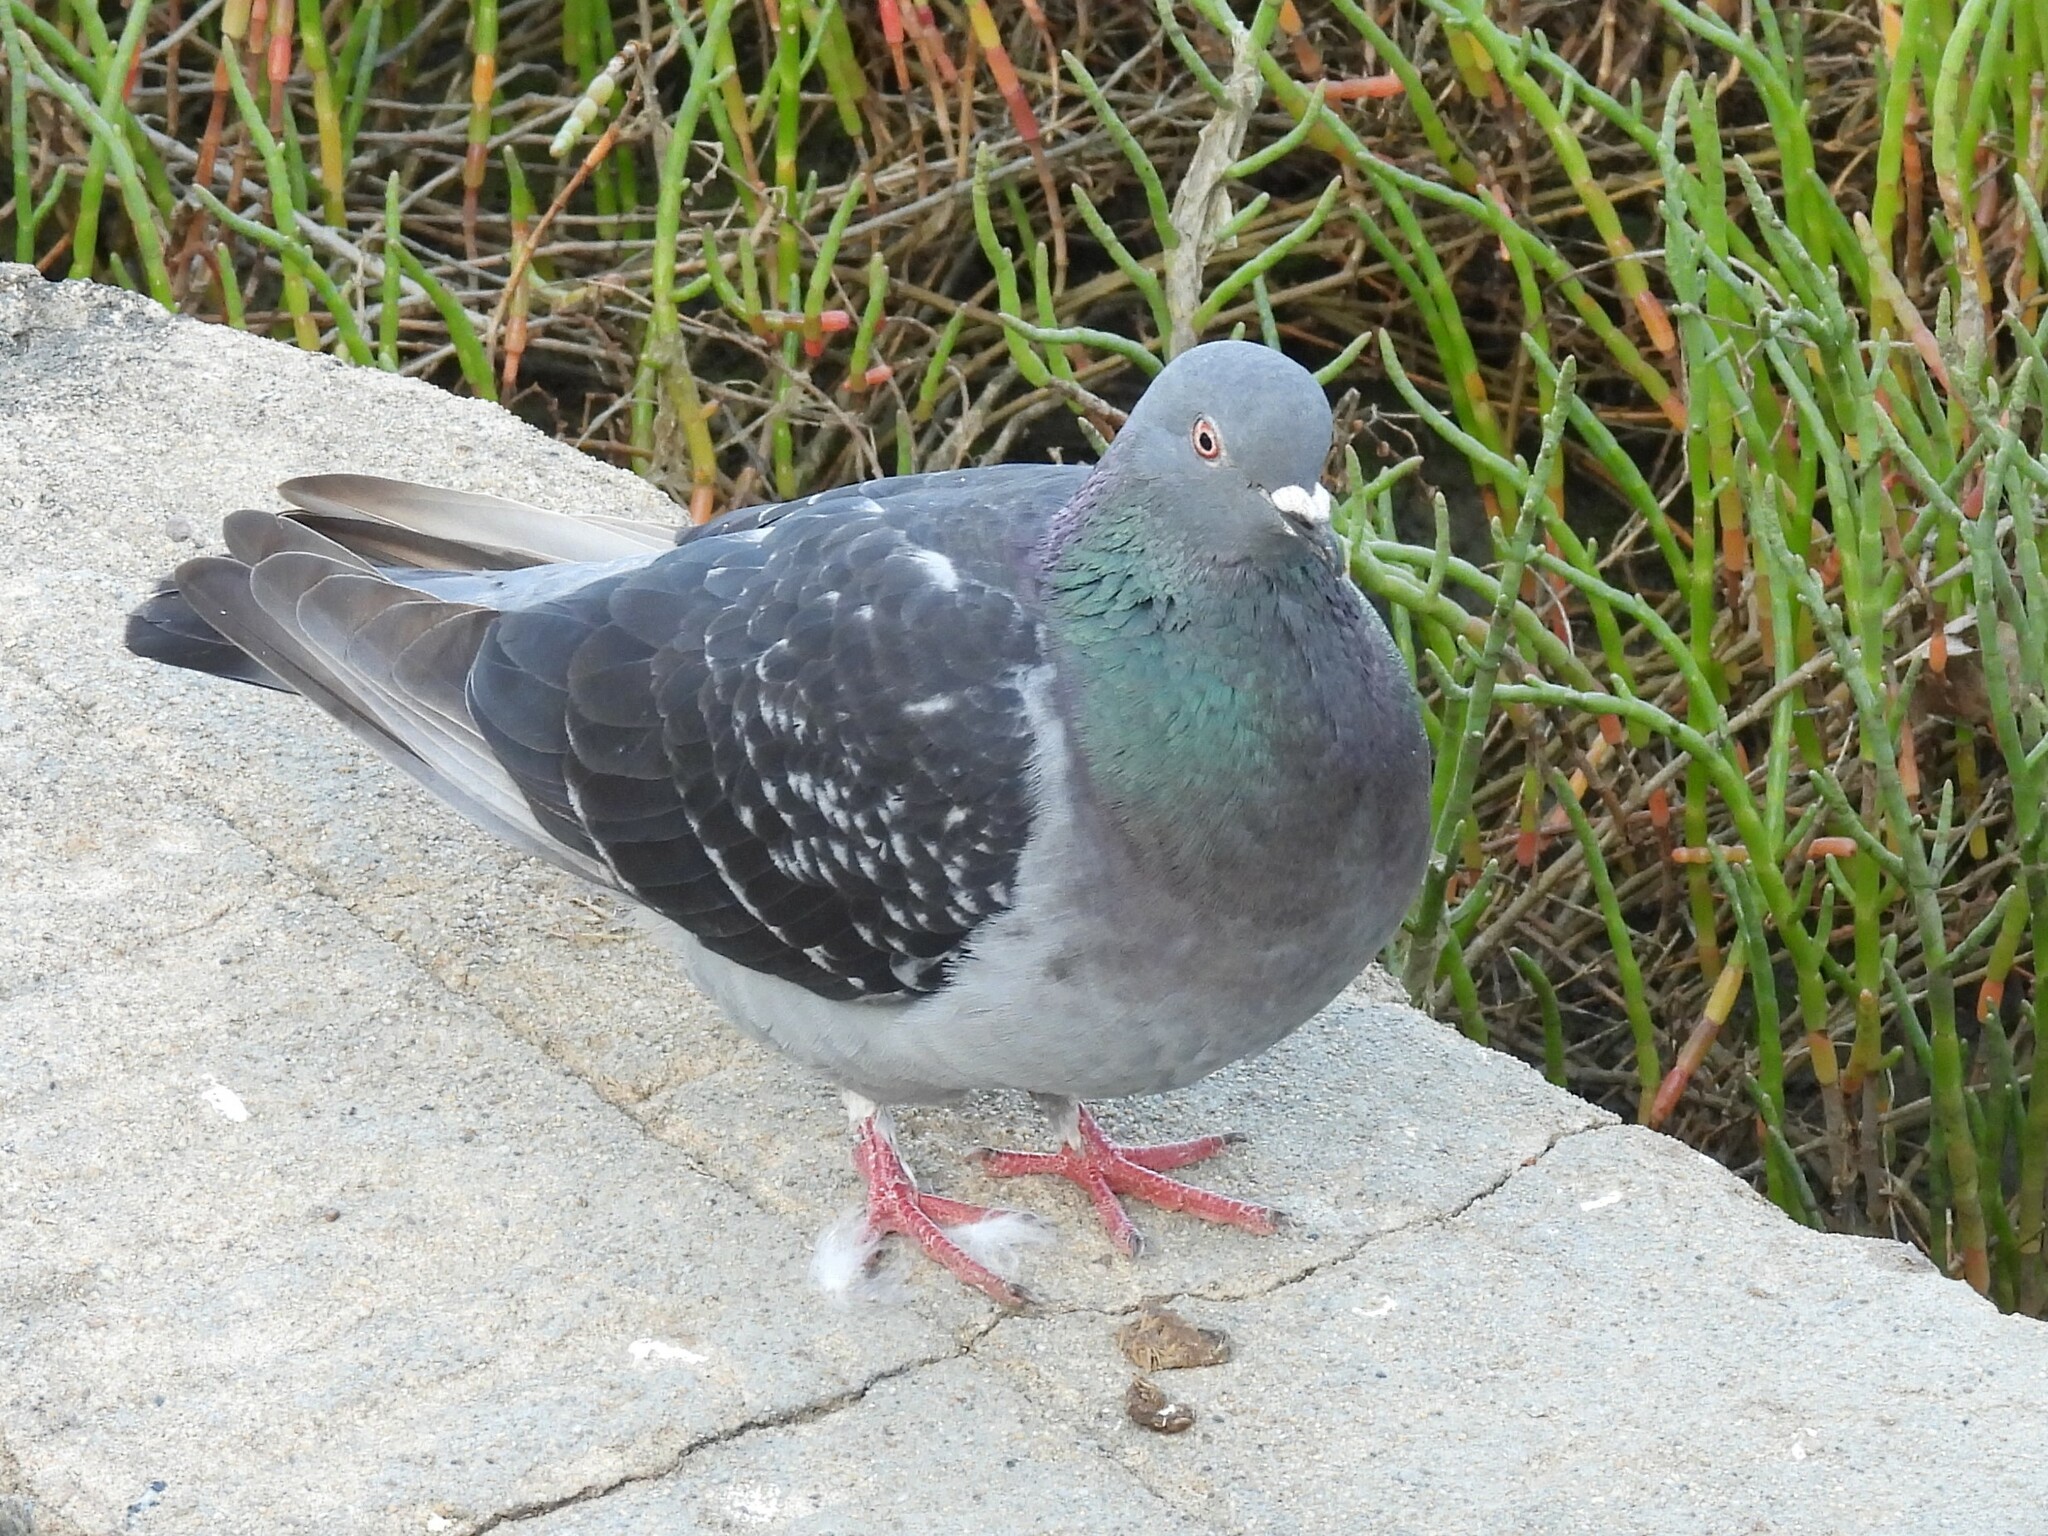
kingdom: Animalia
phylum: Chordata
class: Aves
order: Columbiformes
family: Columbidae
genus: Columba
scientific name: Columba livia
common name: Rock pigeon
